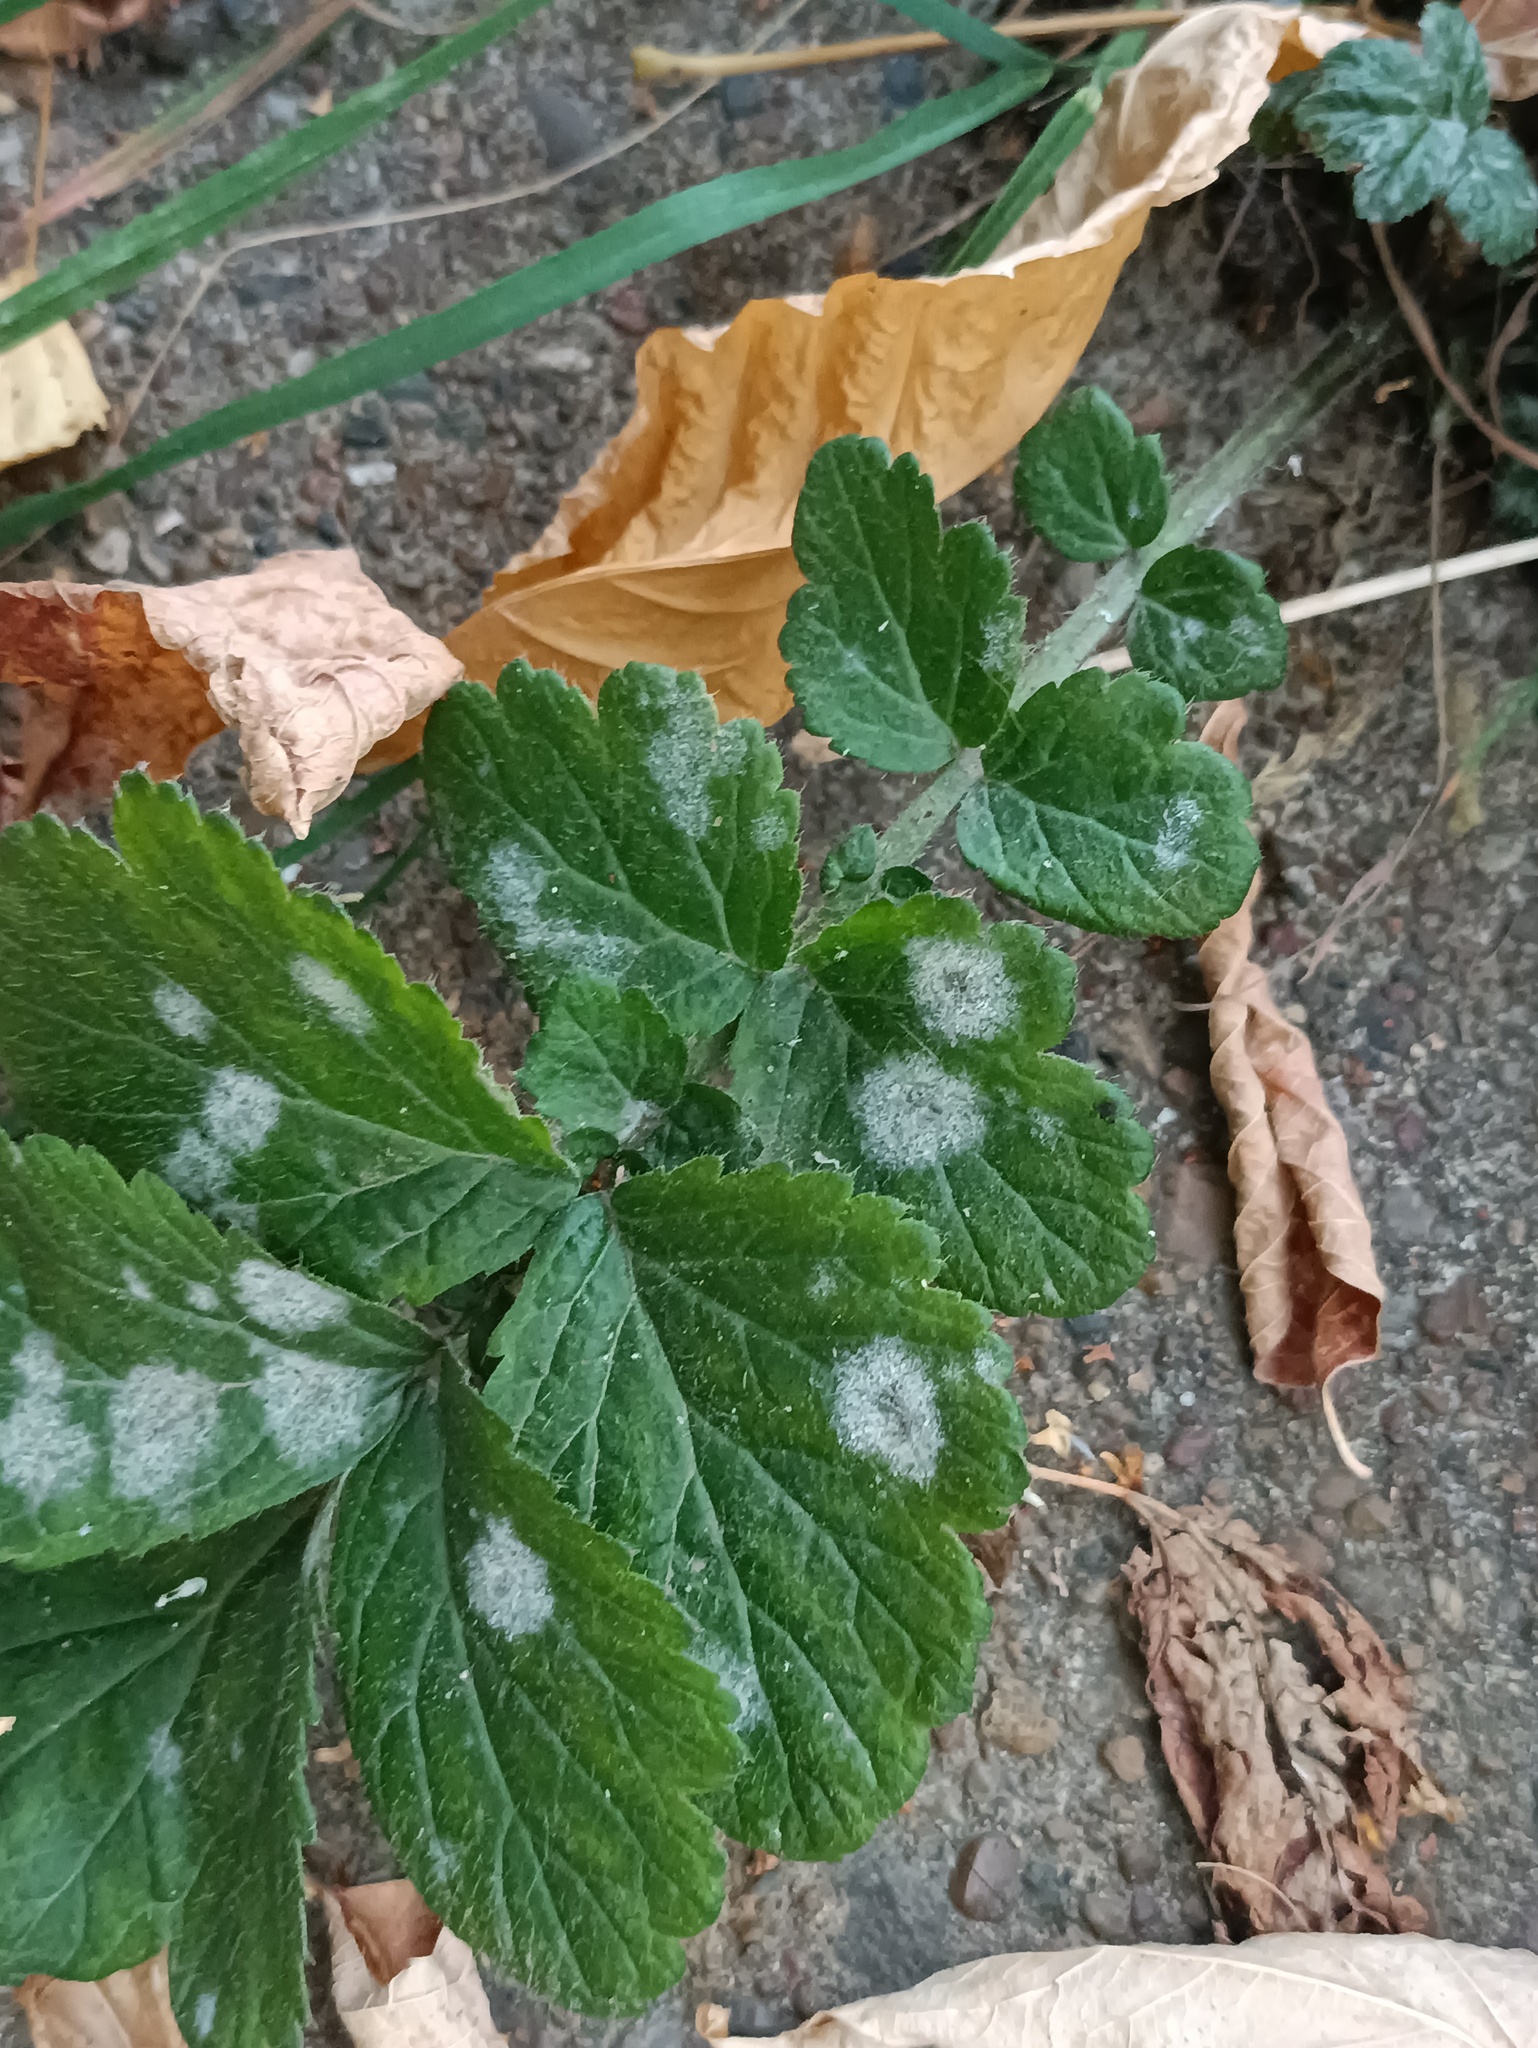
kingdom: Fungi
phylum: Ascomycota
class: Leotiomycetes
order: Helotiales
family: Erysiphaceae
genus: Podosphaera
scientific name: Podosphaera aphanis
